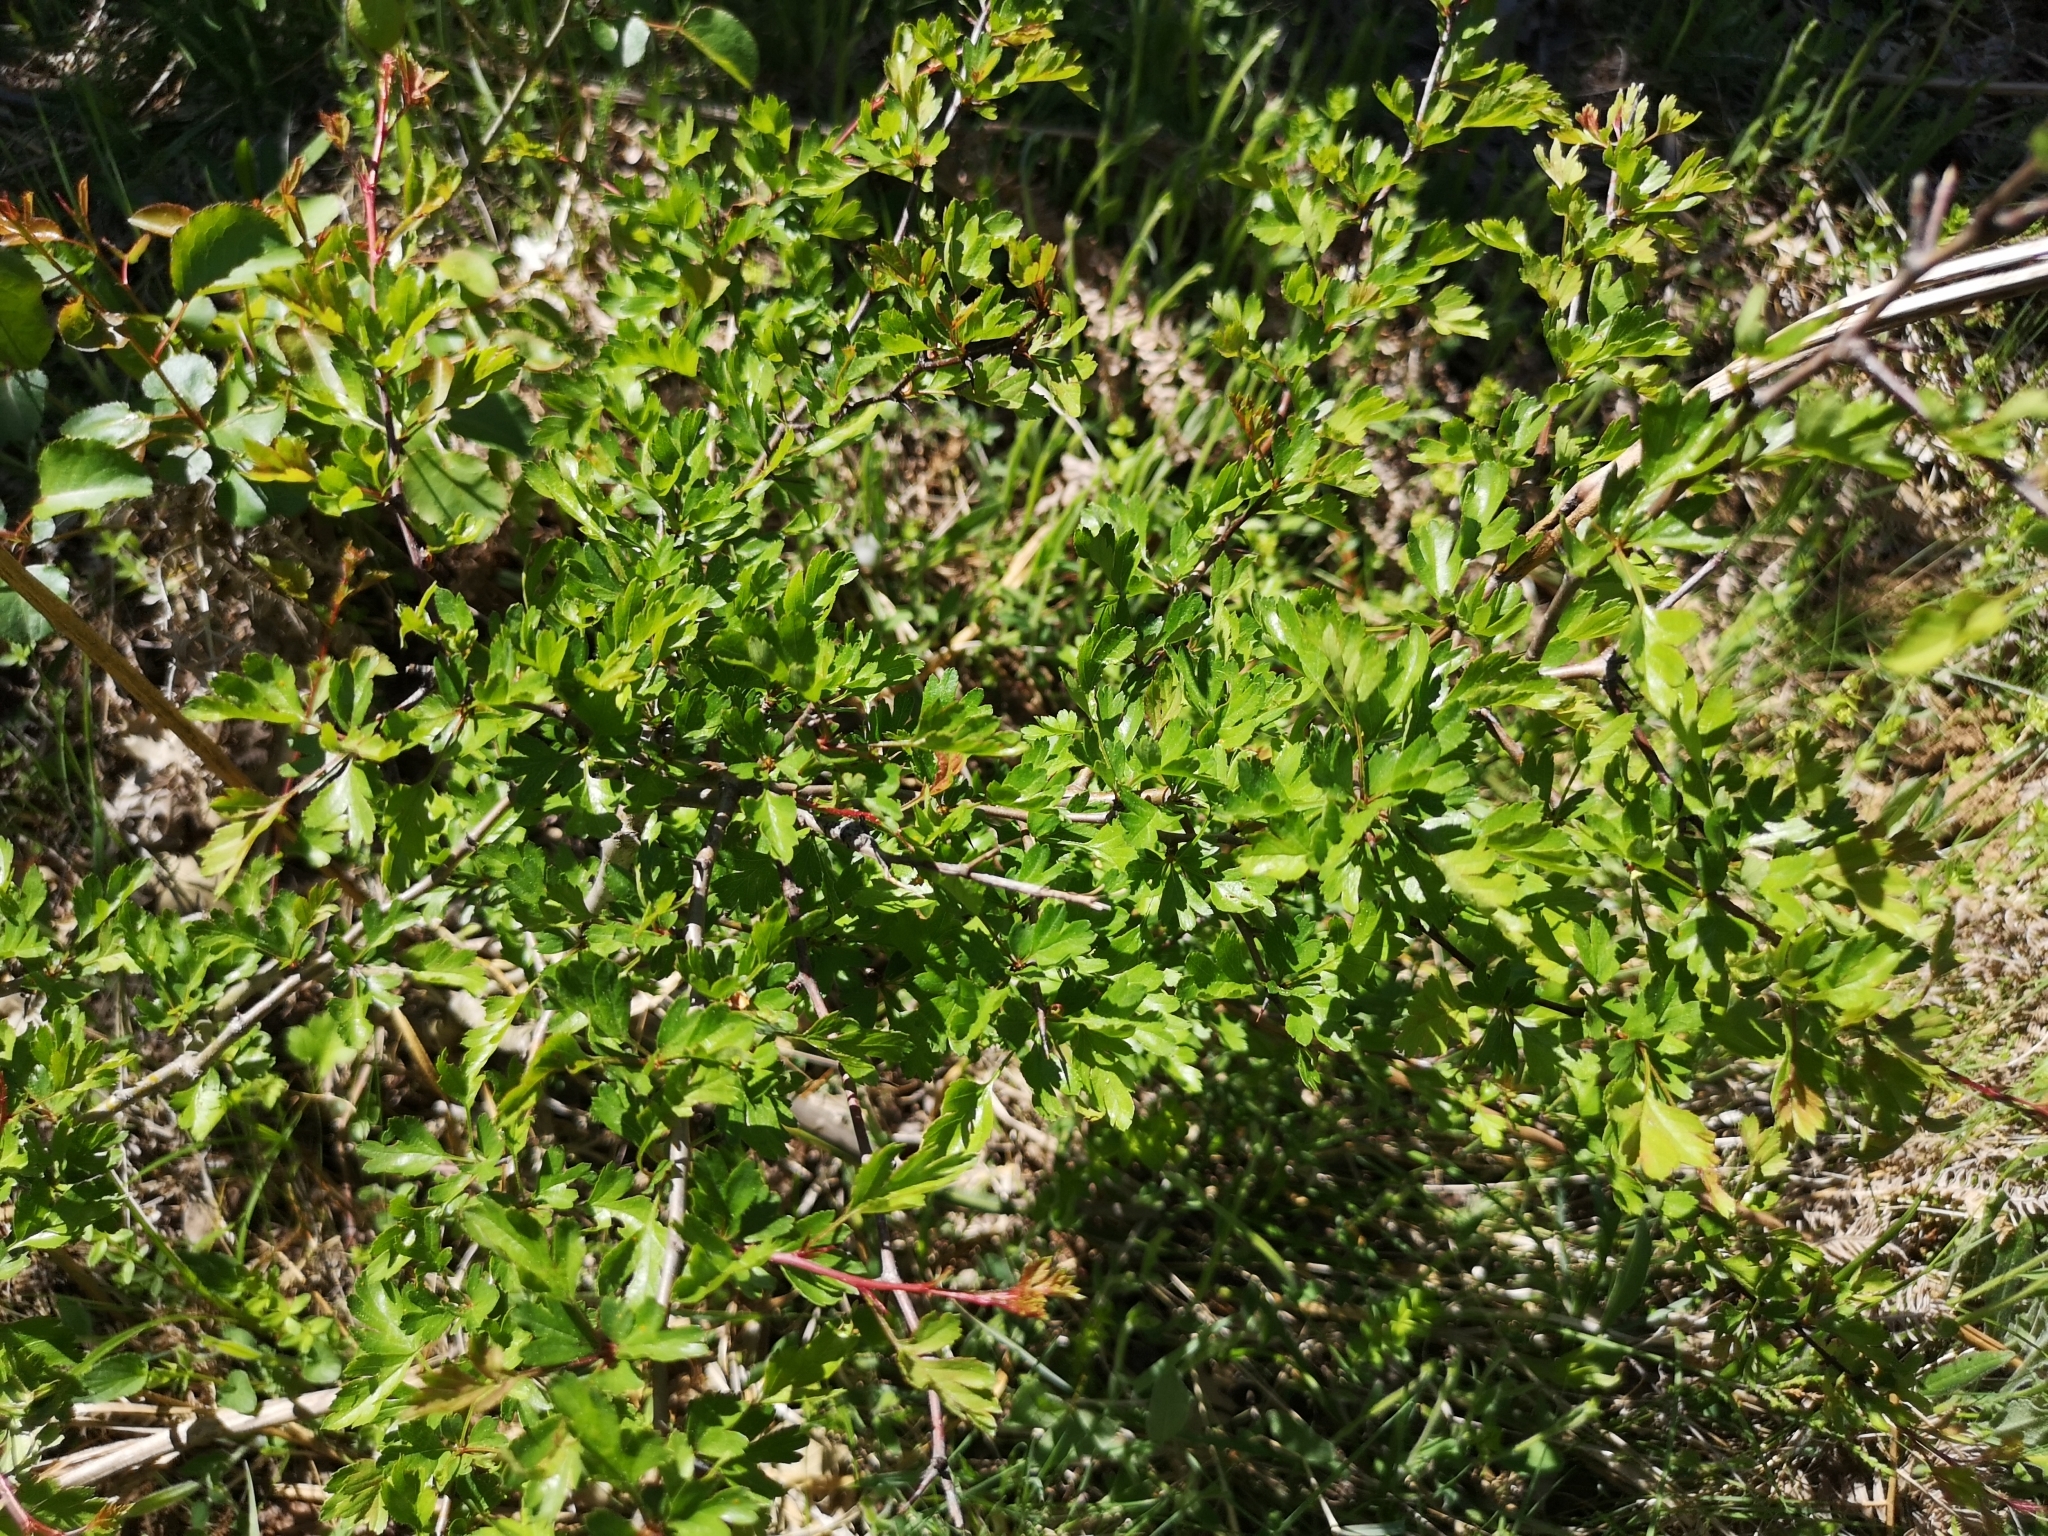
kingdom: Plantae
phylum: Tracheophyta
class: Magnoliopsida
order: Rosales
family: Rosaceae
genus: Crataegus
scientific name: Crataegus monogyna
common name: Hawthorn
